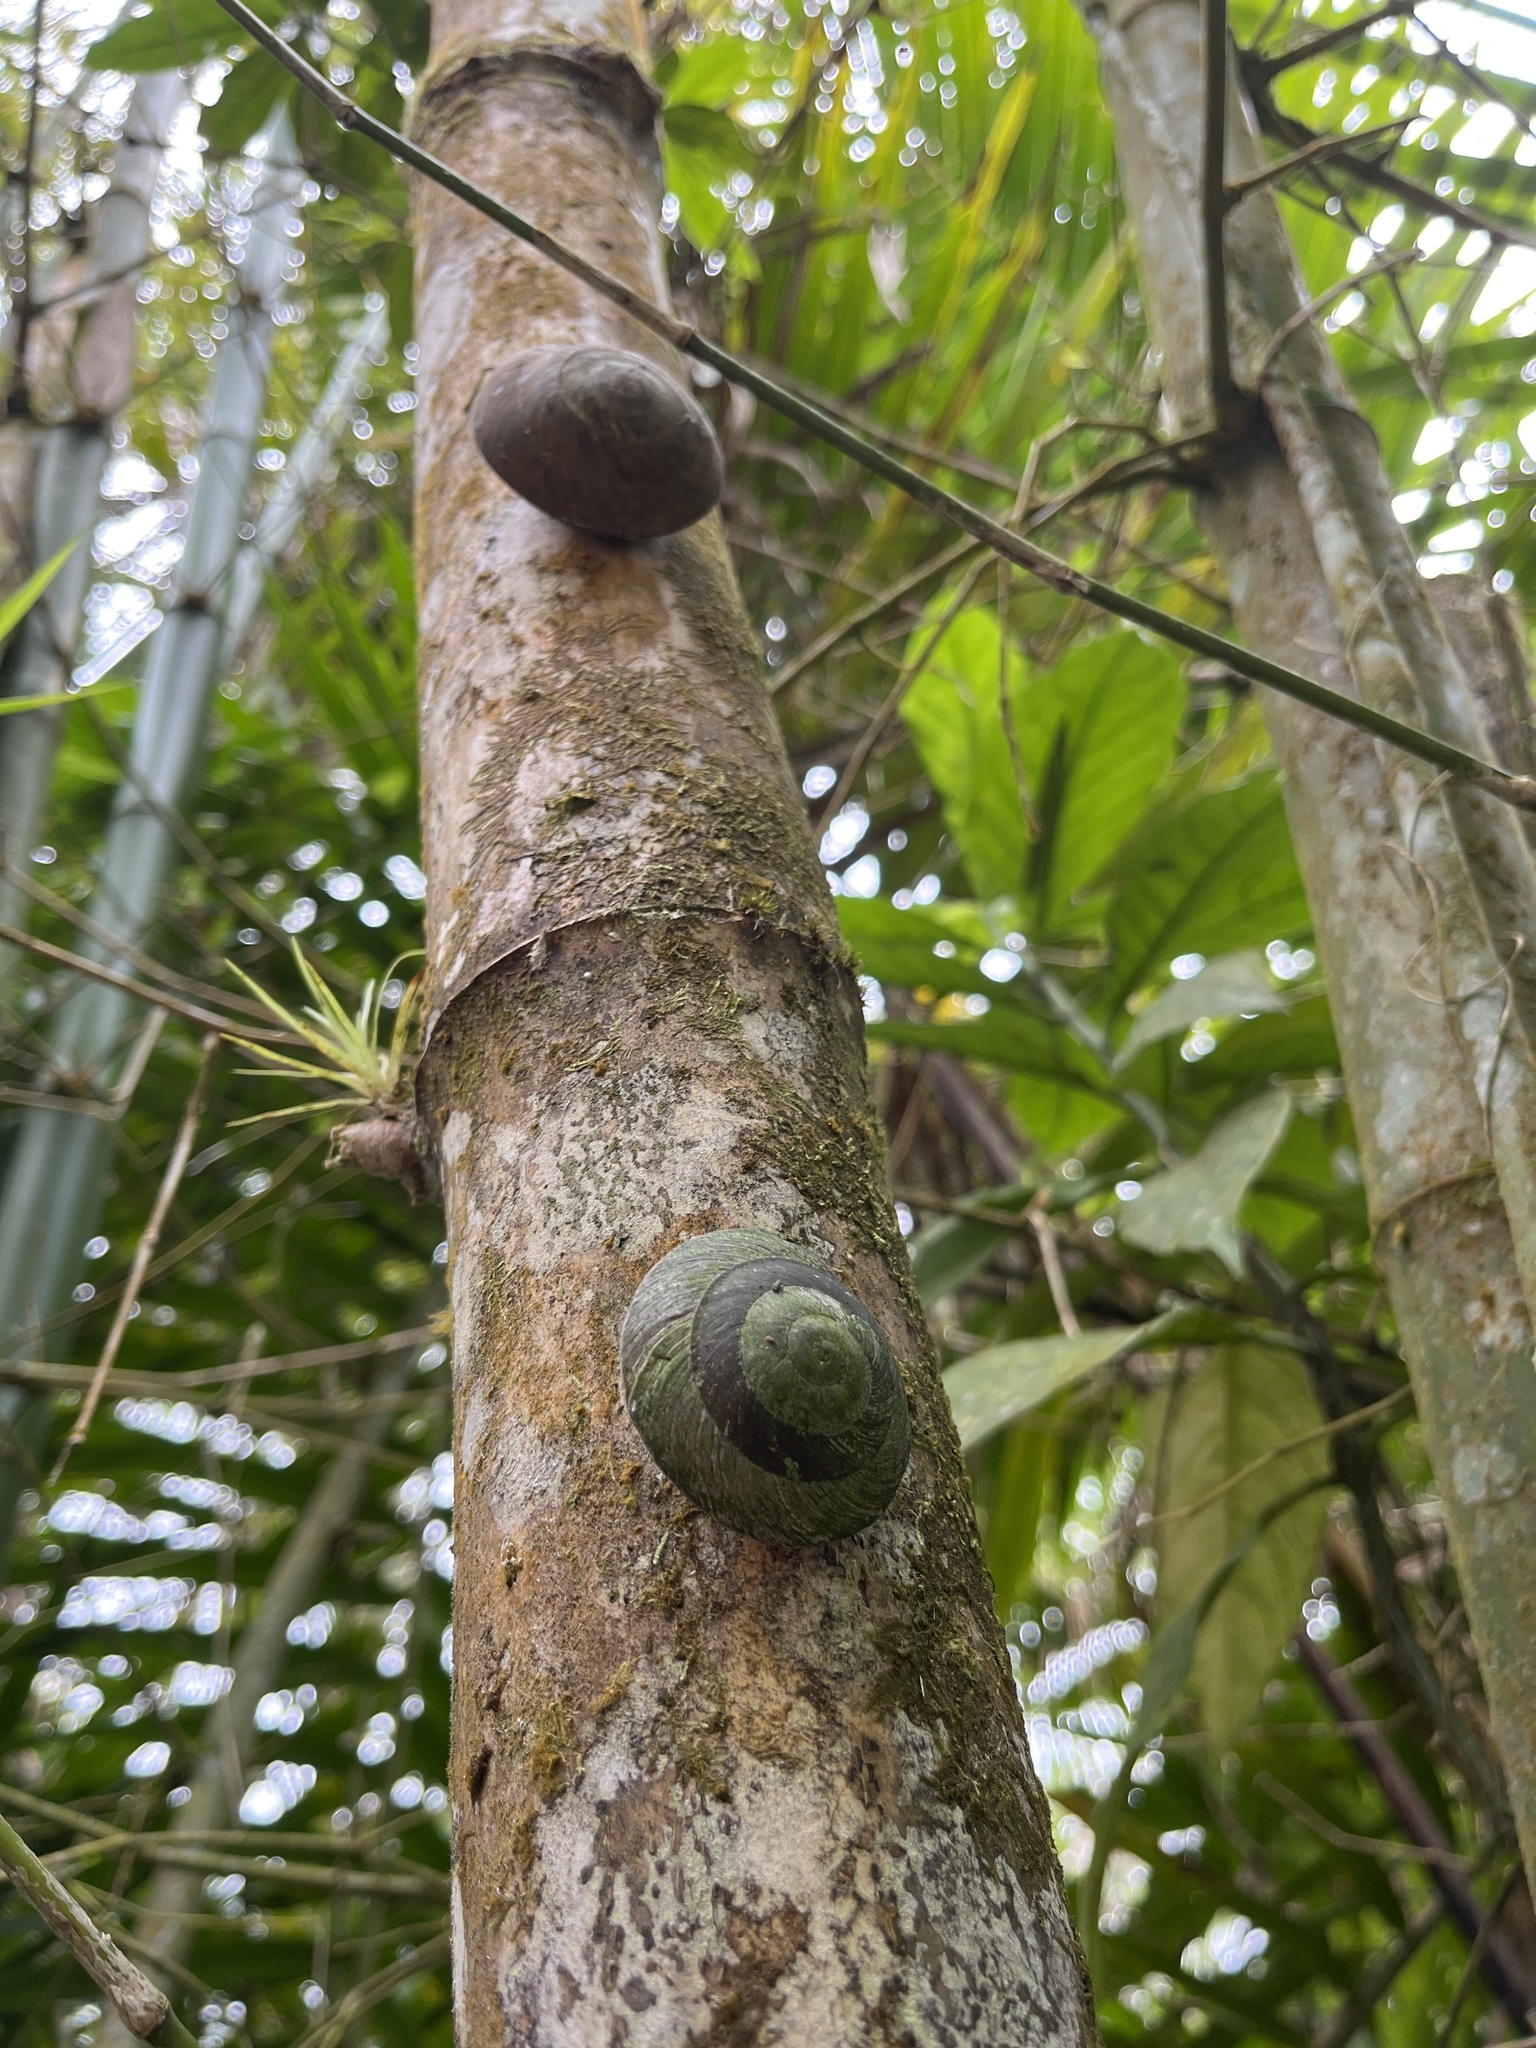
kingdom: Animalia
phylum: Mollusca
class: Gastropoda
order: Stylommatophora
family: Solaropsidae
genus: Caracolus
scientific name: Caracolus carocolla
